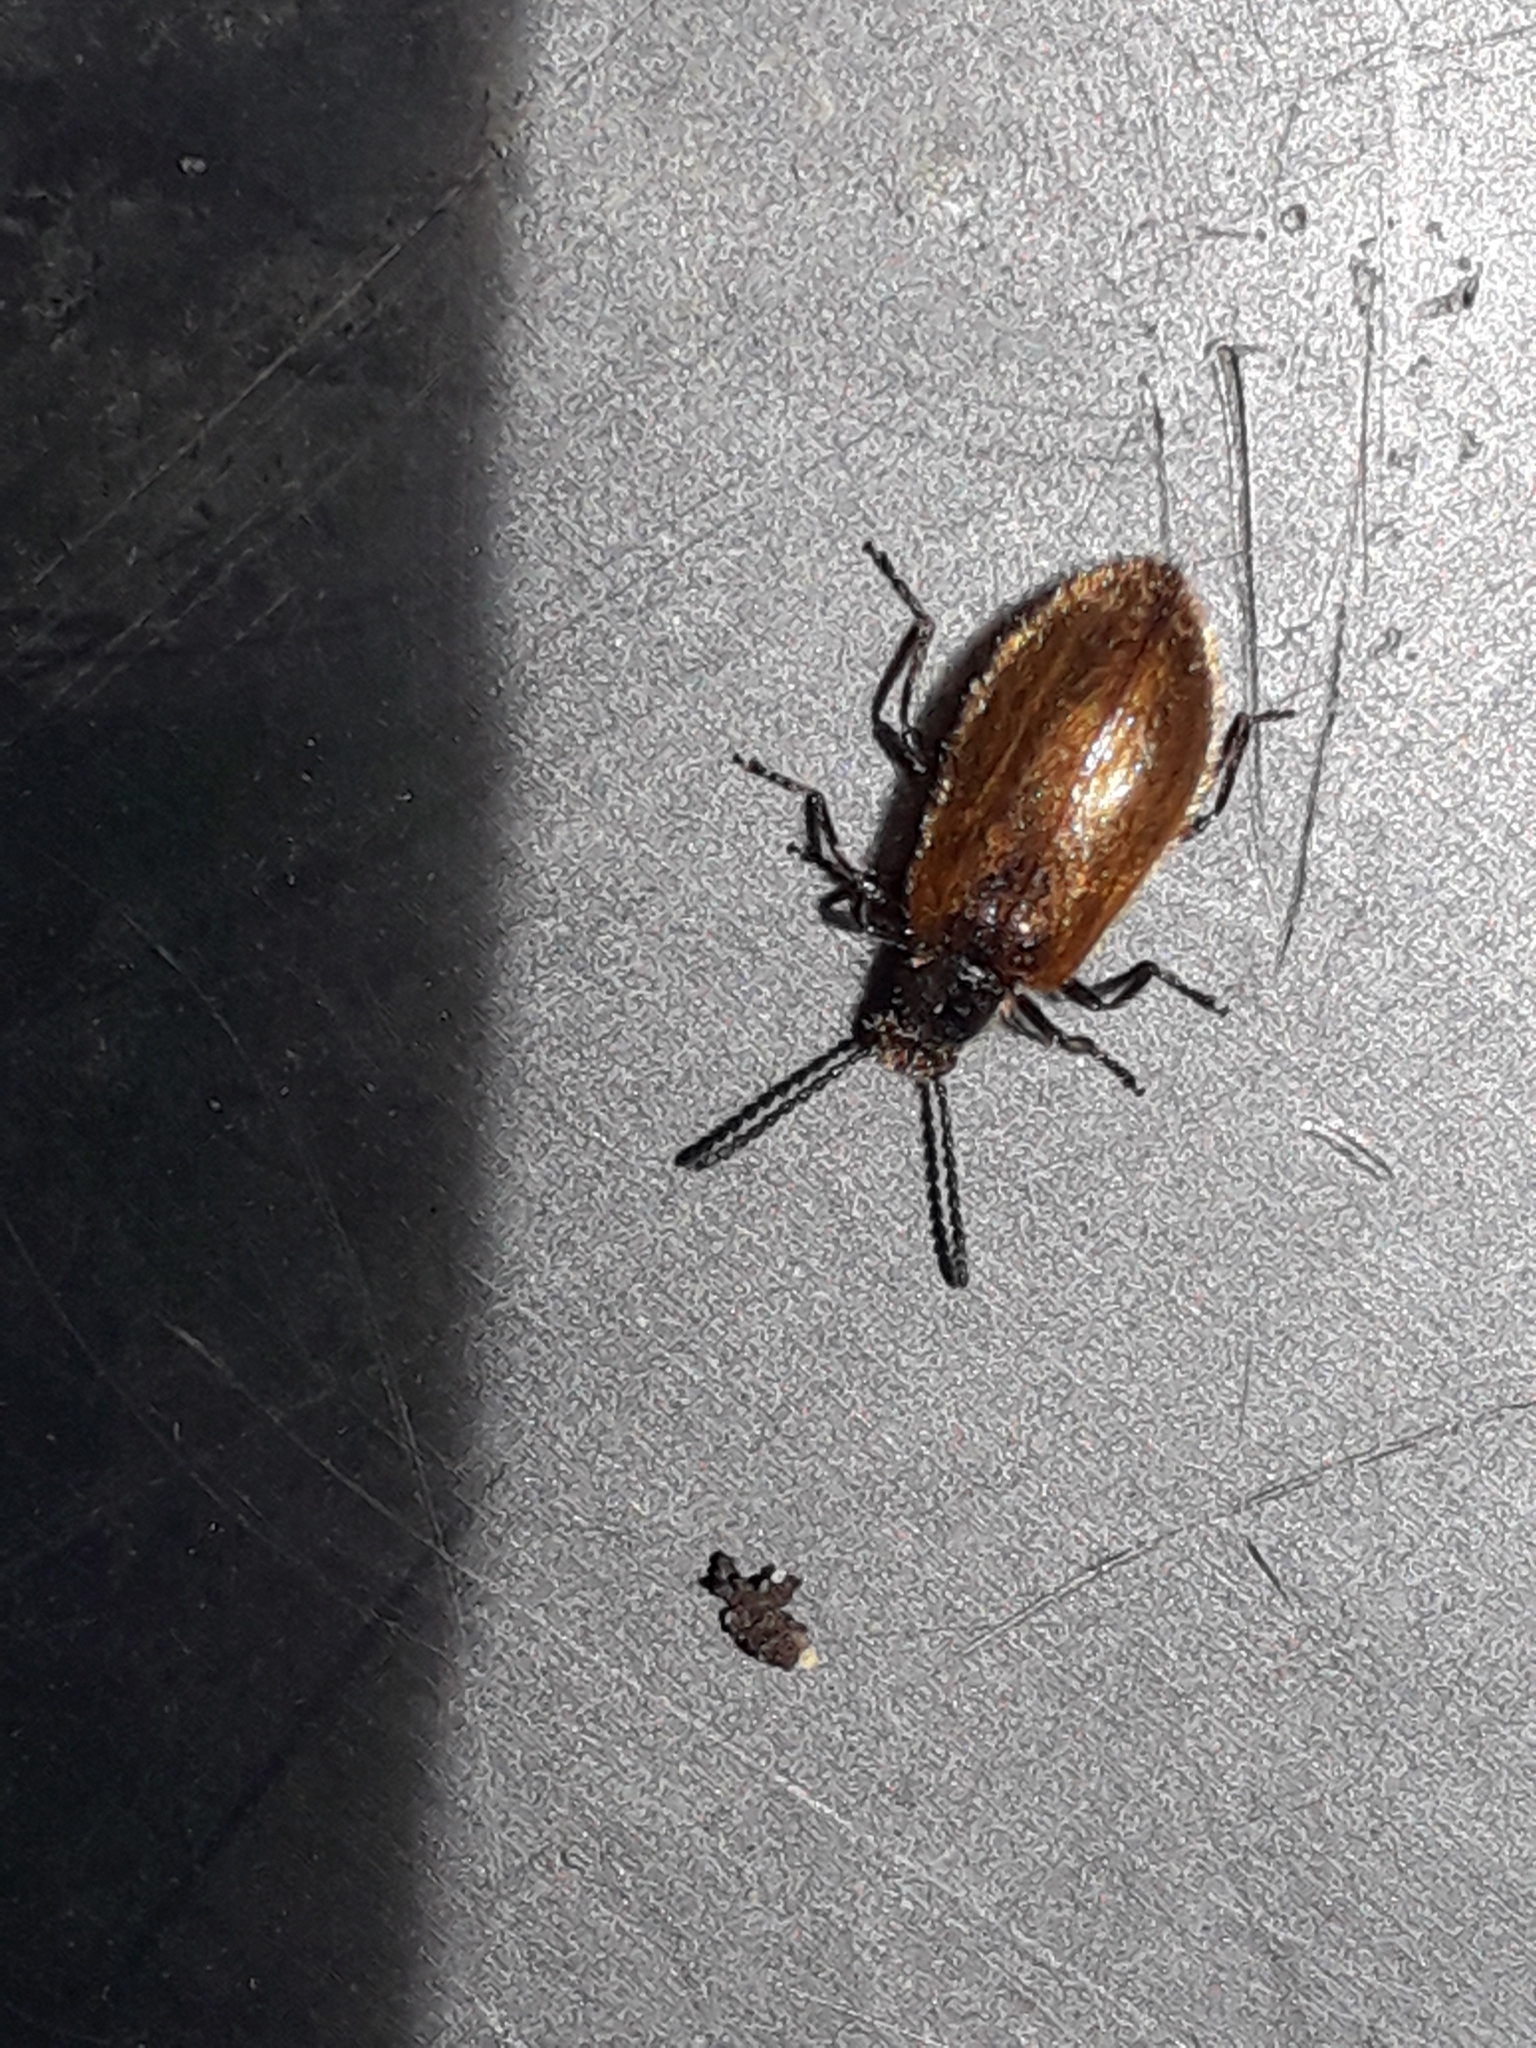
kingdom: Animalia
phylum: Arthropoda
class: Insecta
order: Coleoptera
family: Tenebrionidae
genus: Lagria
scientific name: Lagria hirta
